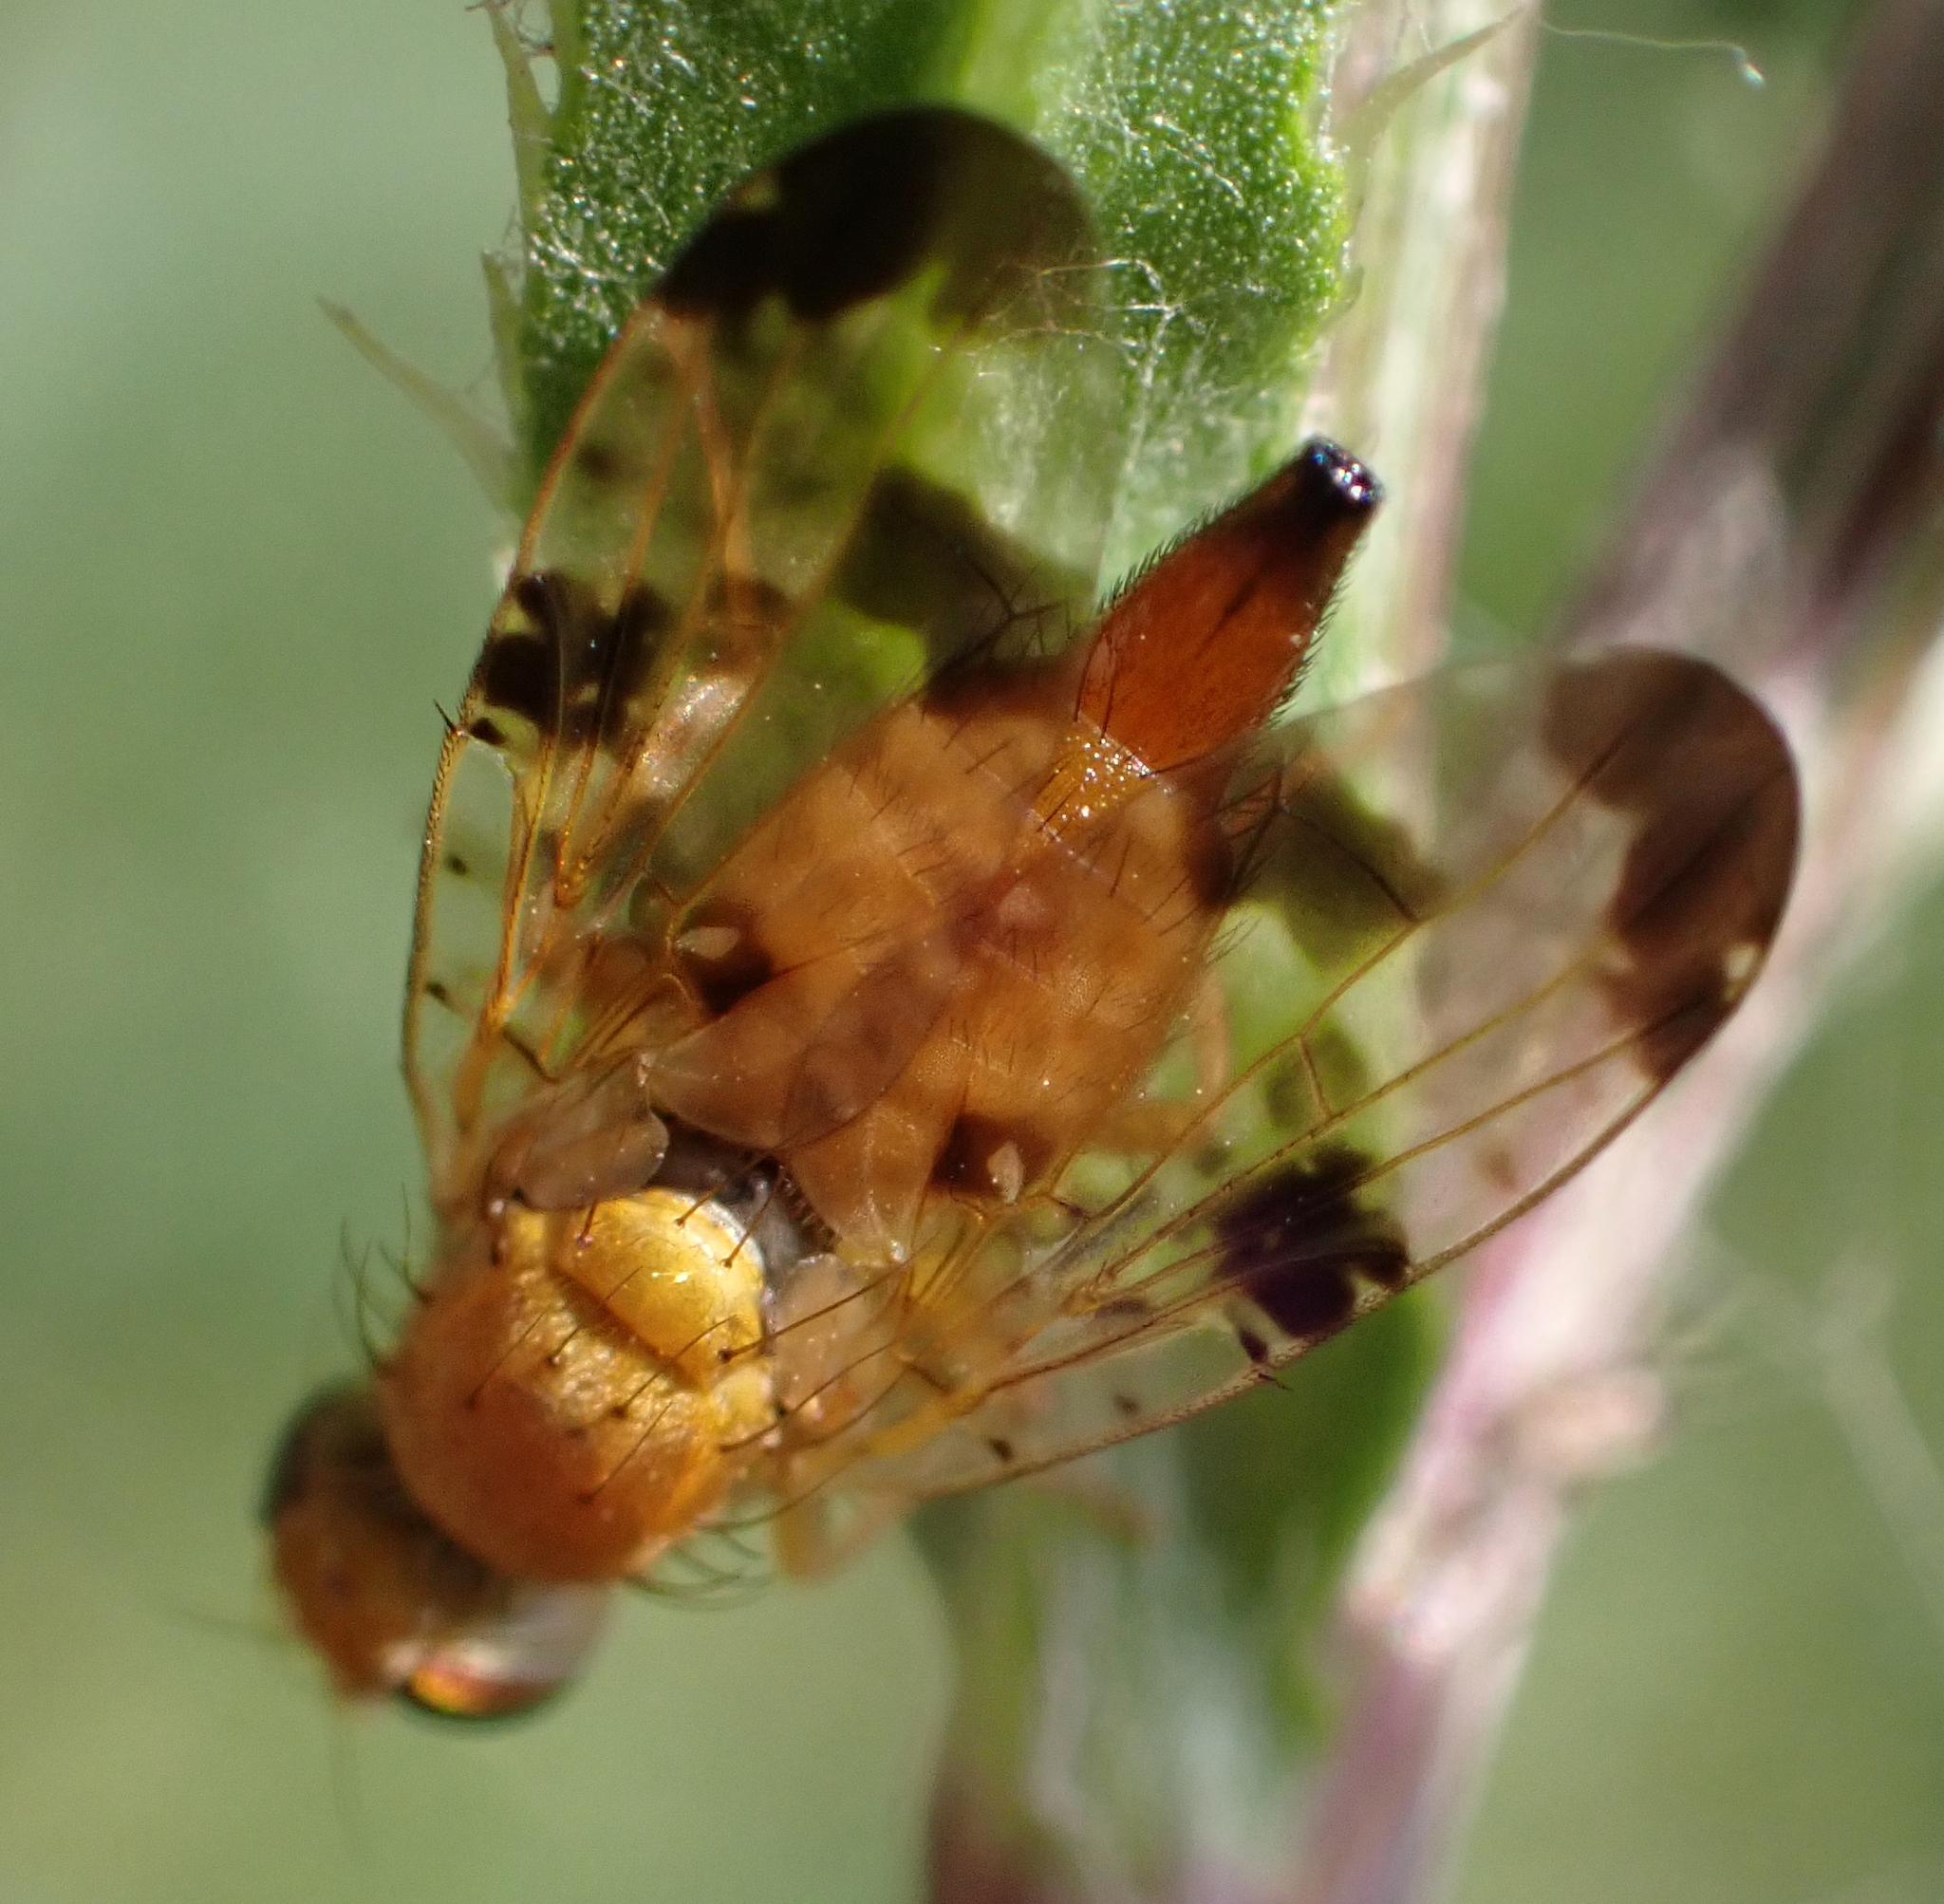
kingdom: Animalia
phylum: Arthropoda
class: Insecta
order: Diptera
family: Tephritidae
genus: Xyphosia
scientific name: Xyphosia miliaria
